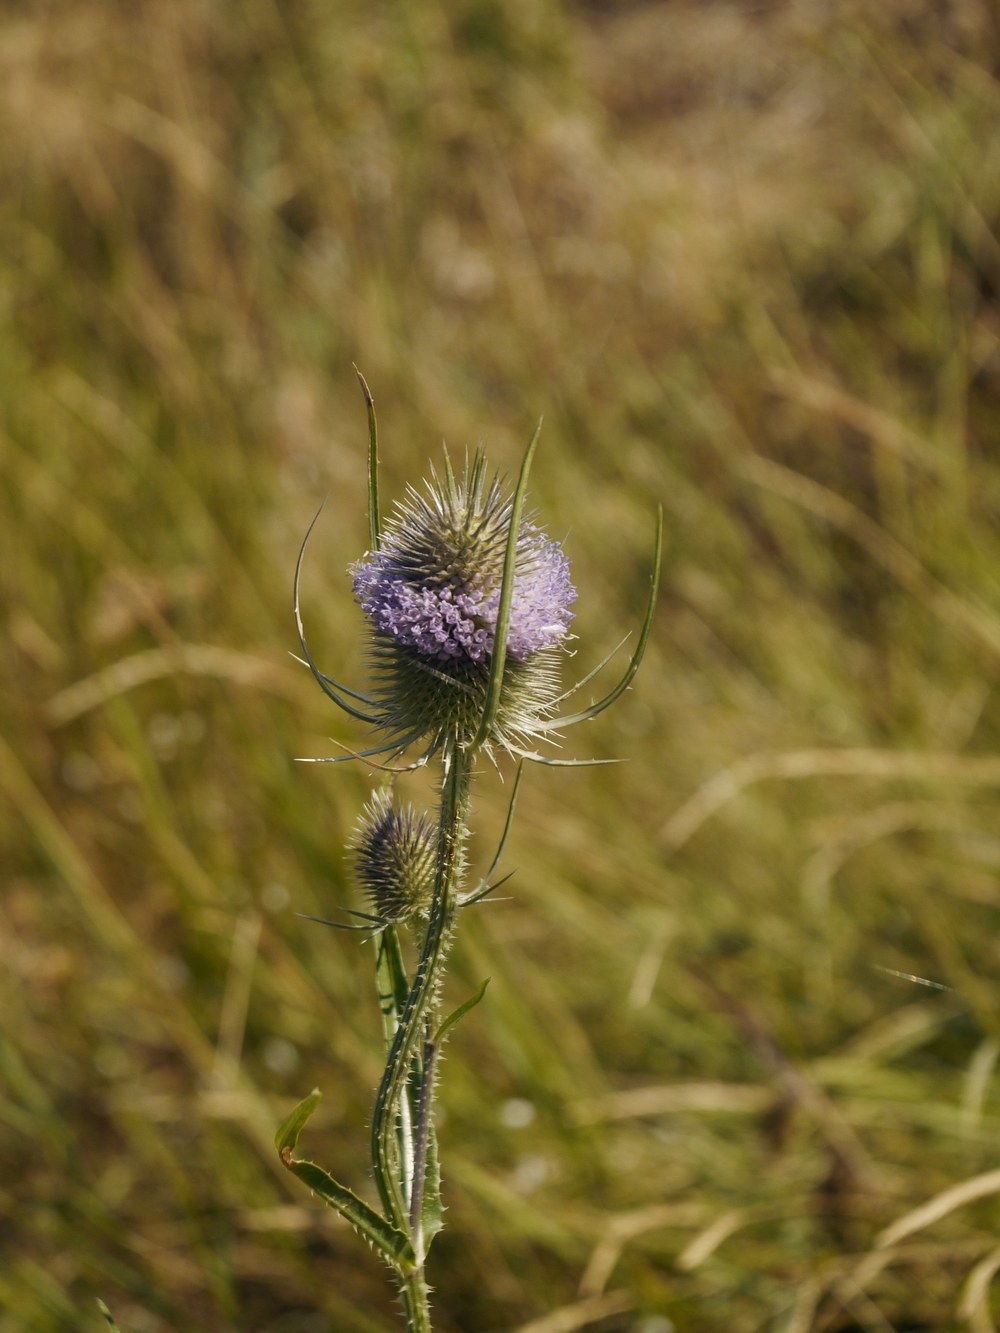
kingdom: Plantae
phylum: Tracheophyta
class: Magnoliopsida
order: Dipsacales
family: Caprifoliaceae
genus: Dipsacus
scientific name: Dipsacus fullonum
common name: Teasel
